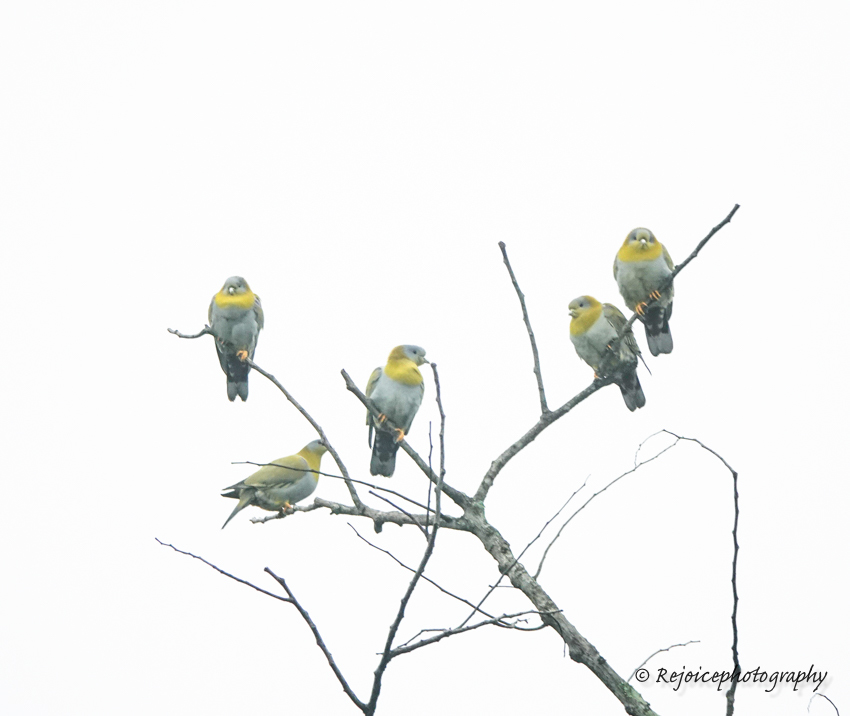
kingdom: Animalia
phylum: Chordata
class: Aves
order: Columbiformes
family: Columbidae
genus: Treron
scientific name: Treron phoenicopterus
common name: Yellow-footed green pigeon
